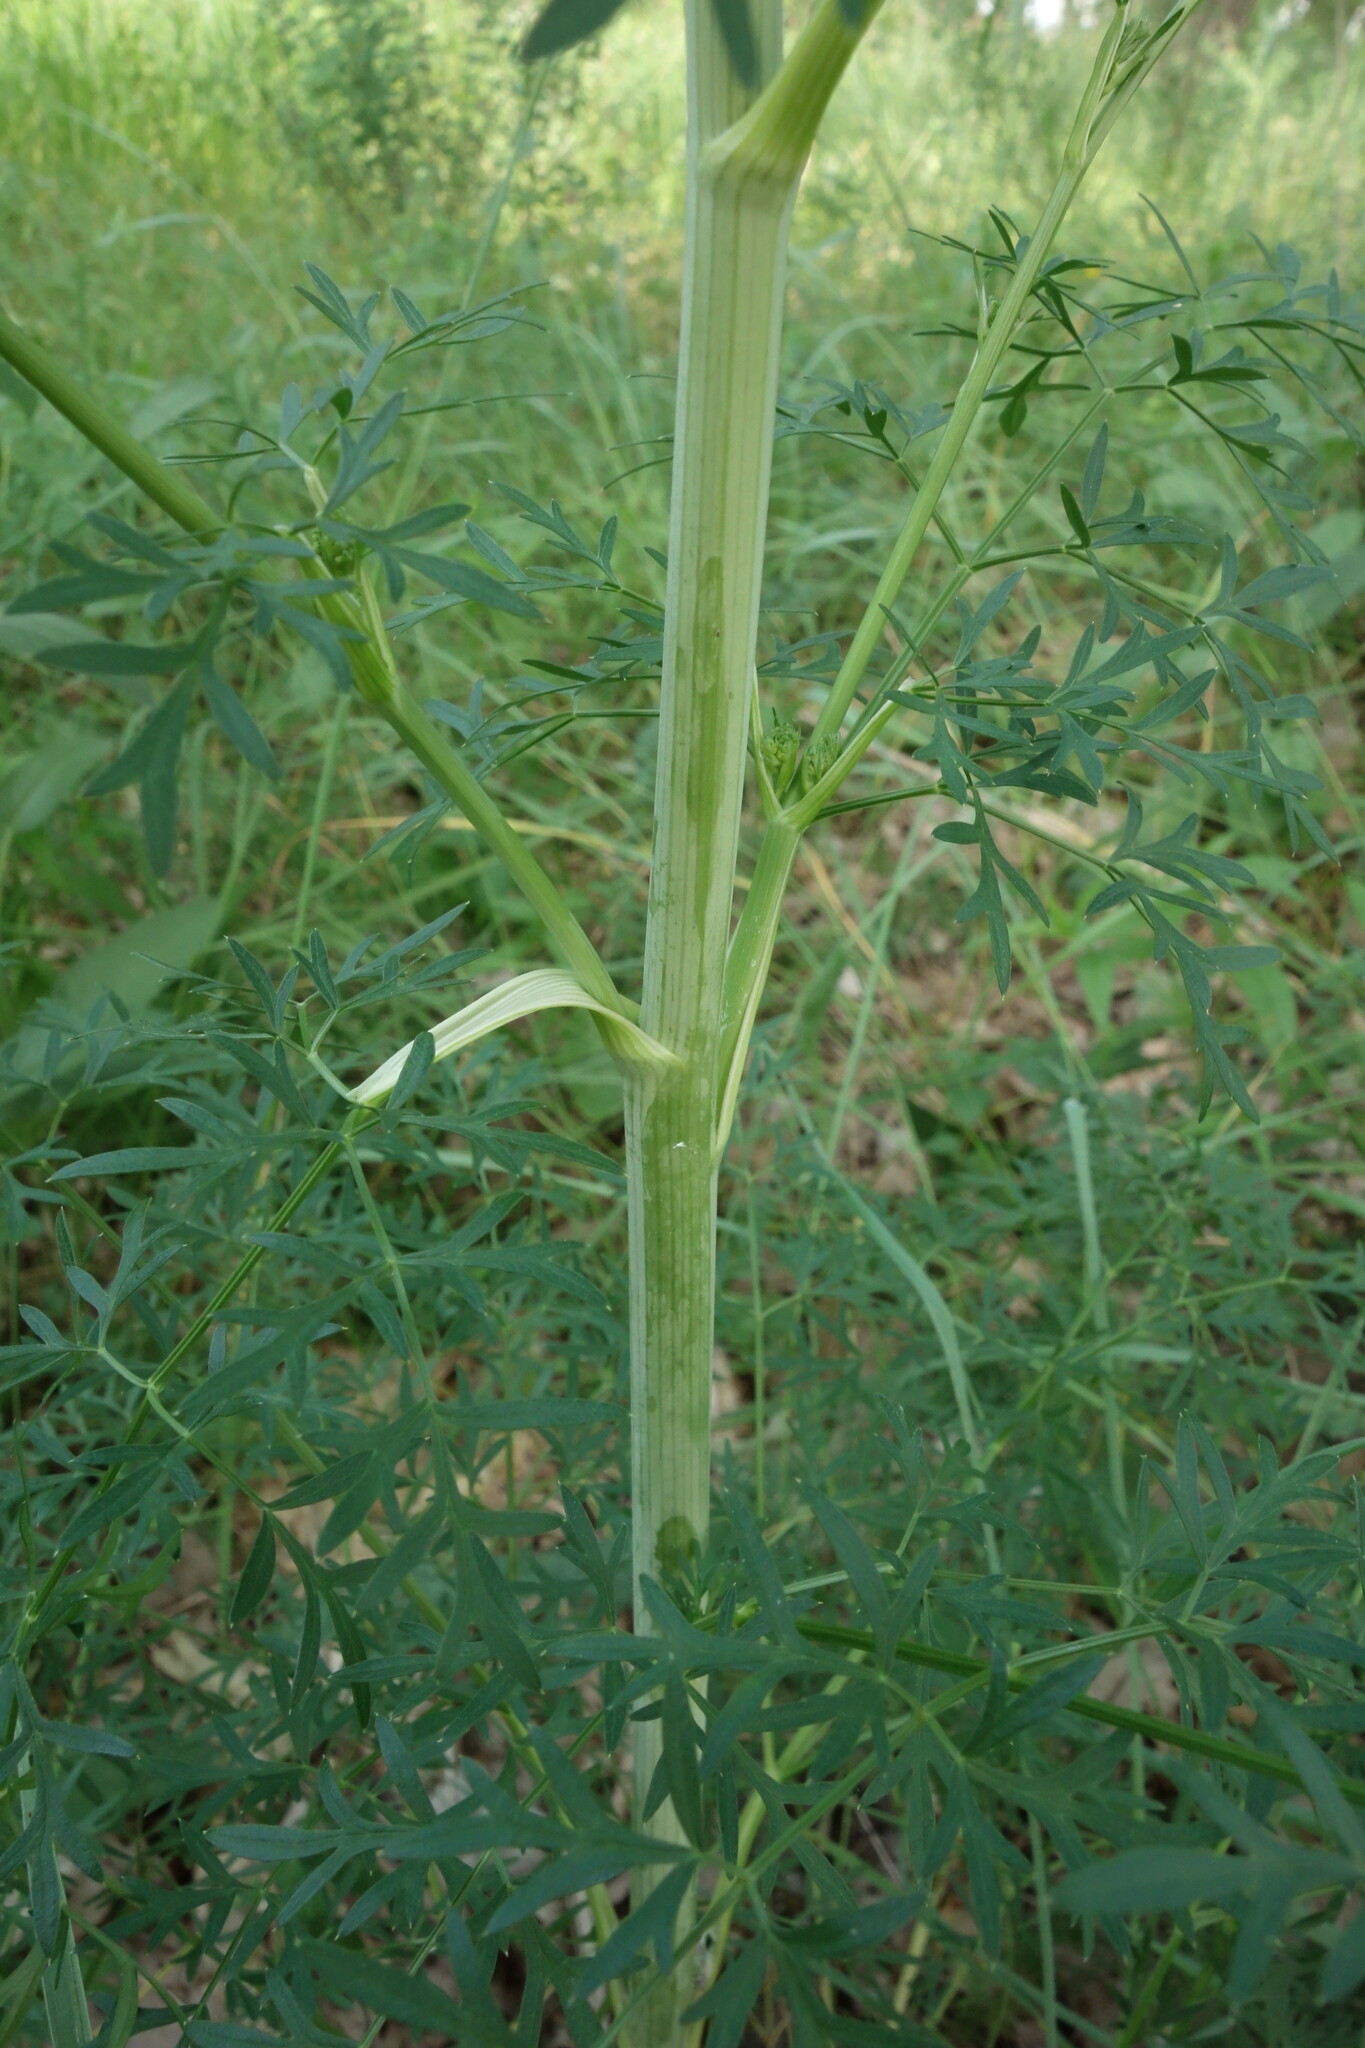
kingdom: Plantae
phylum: Tracheophyta
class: Magnoliopsida
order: Apiales
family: Apiaceae
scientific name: Apiaceae
